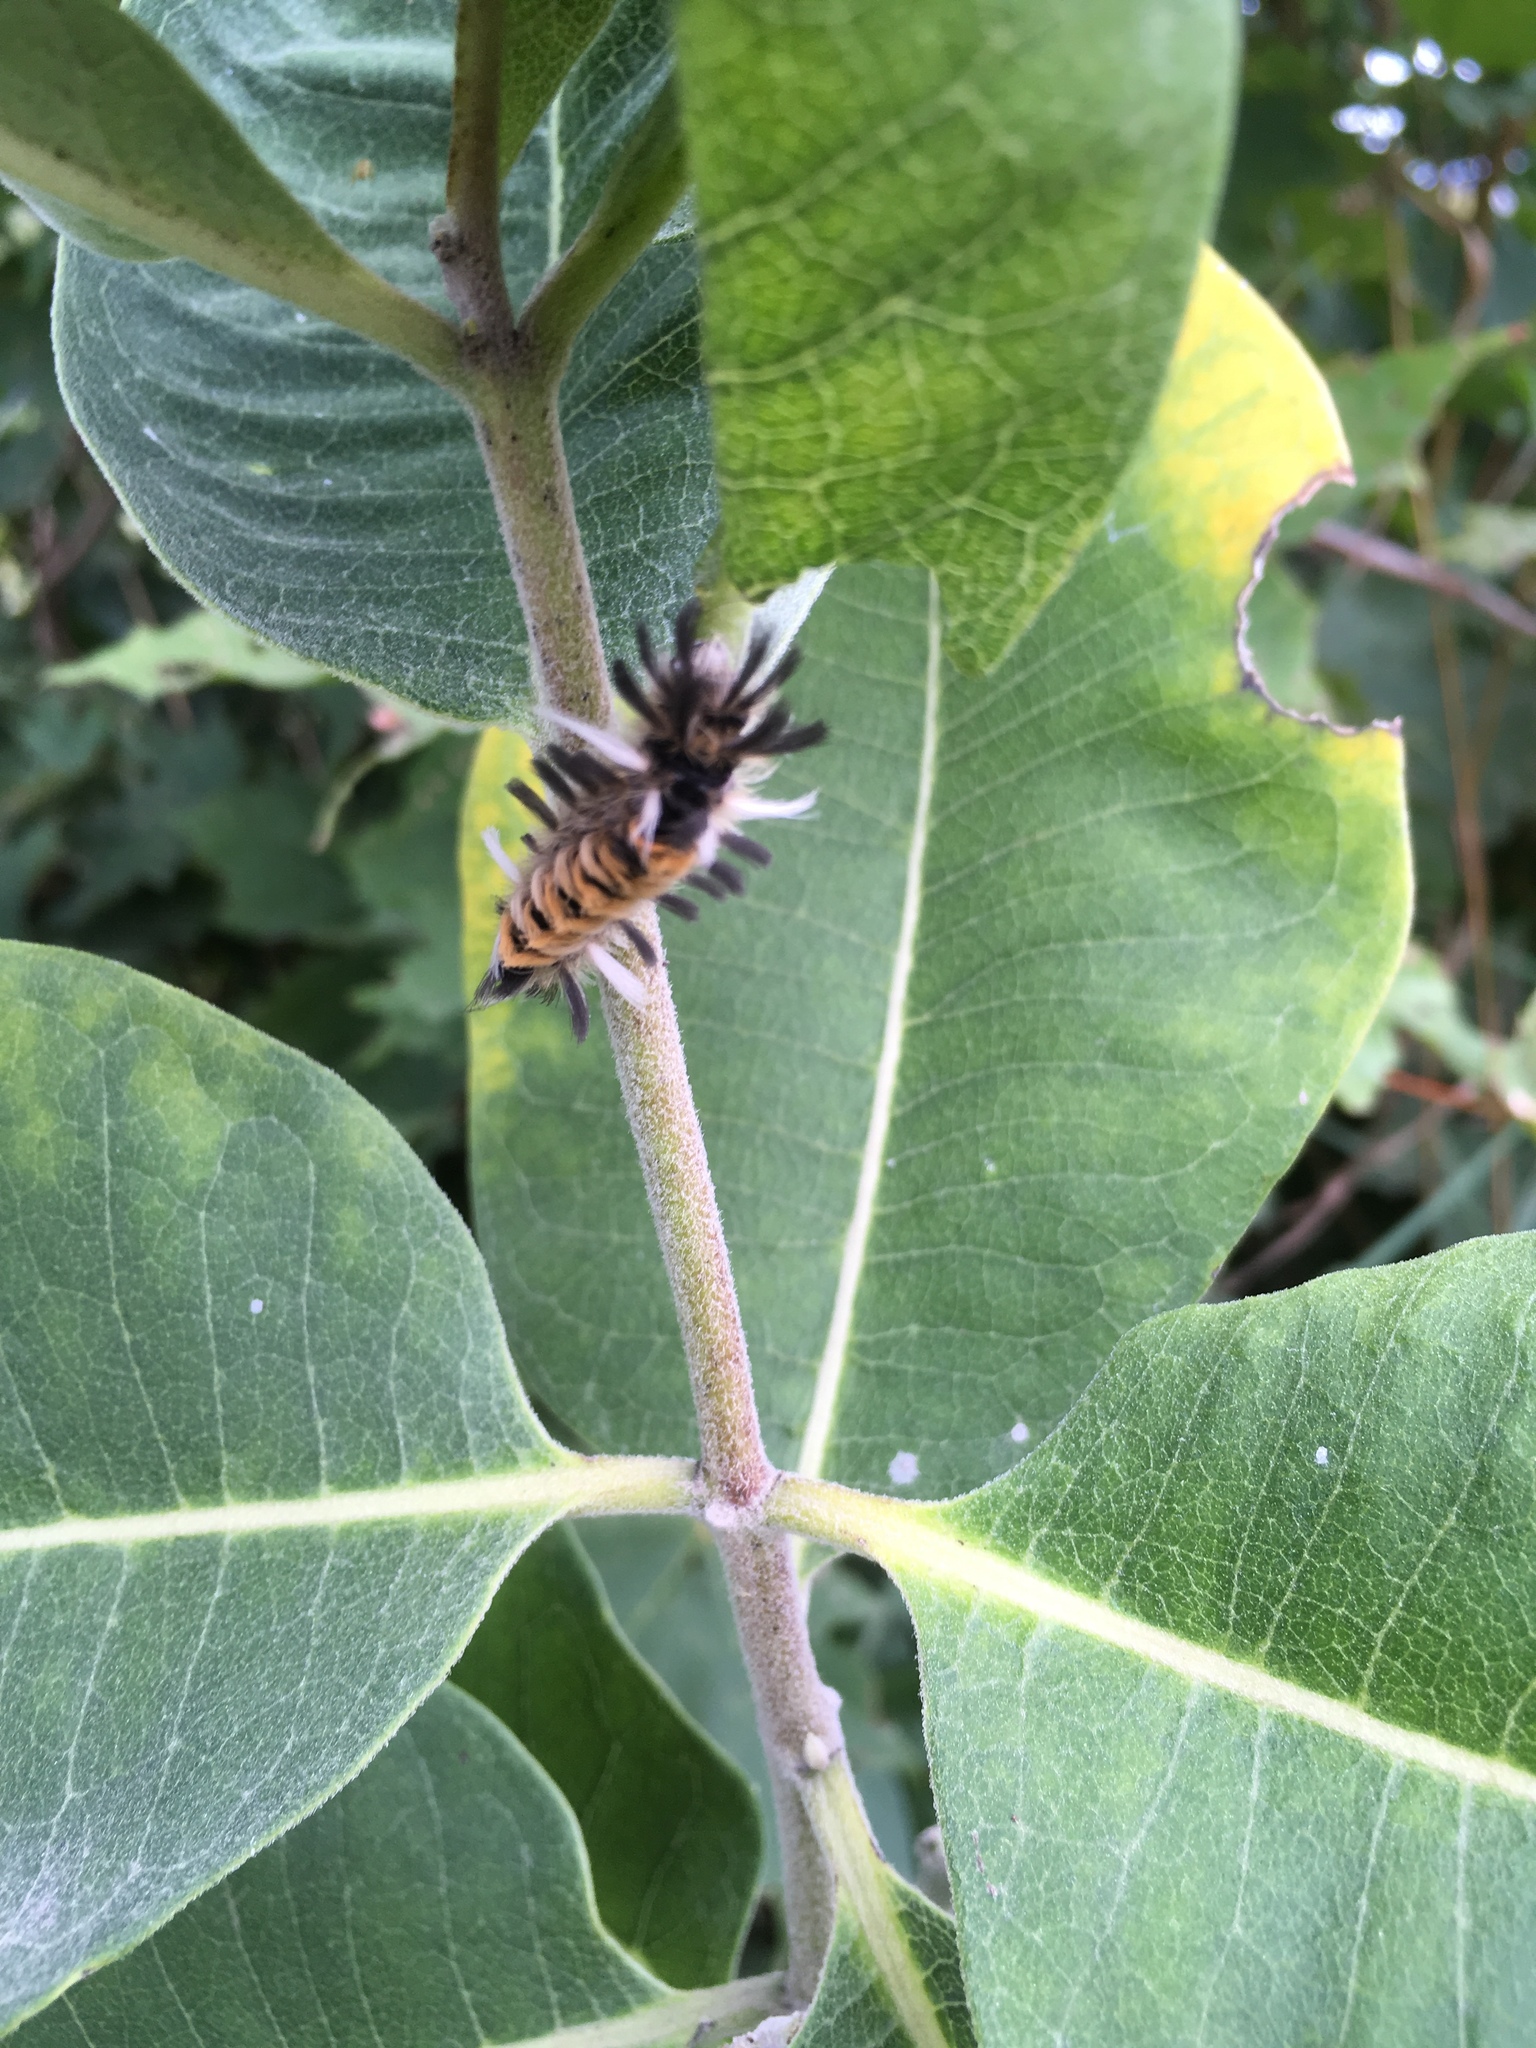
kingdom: Animalia
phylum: Arthropoda
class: Insecta
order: Lepidoptera
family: Erebidae
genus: Euchaetes
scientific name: Euchaetes egle
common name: Milkweed tussock moth
